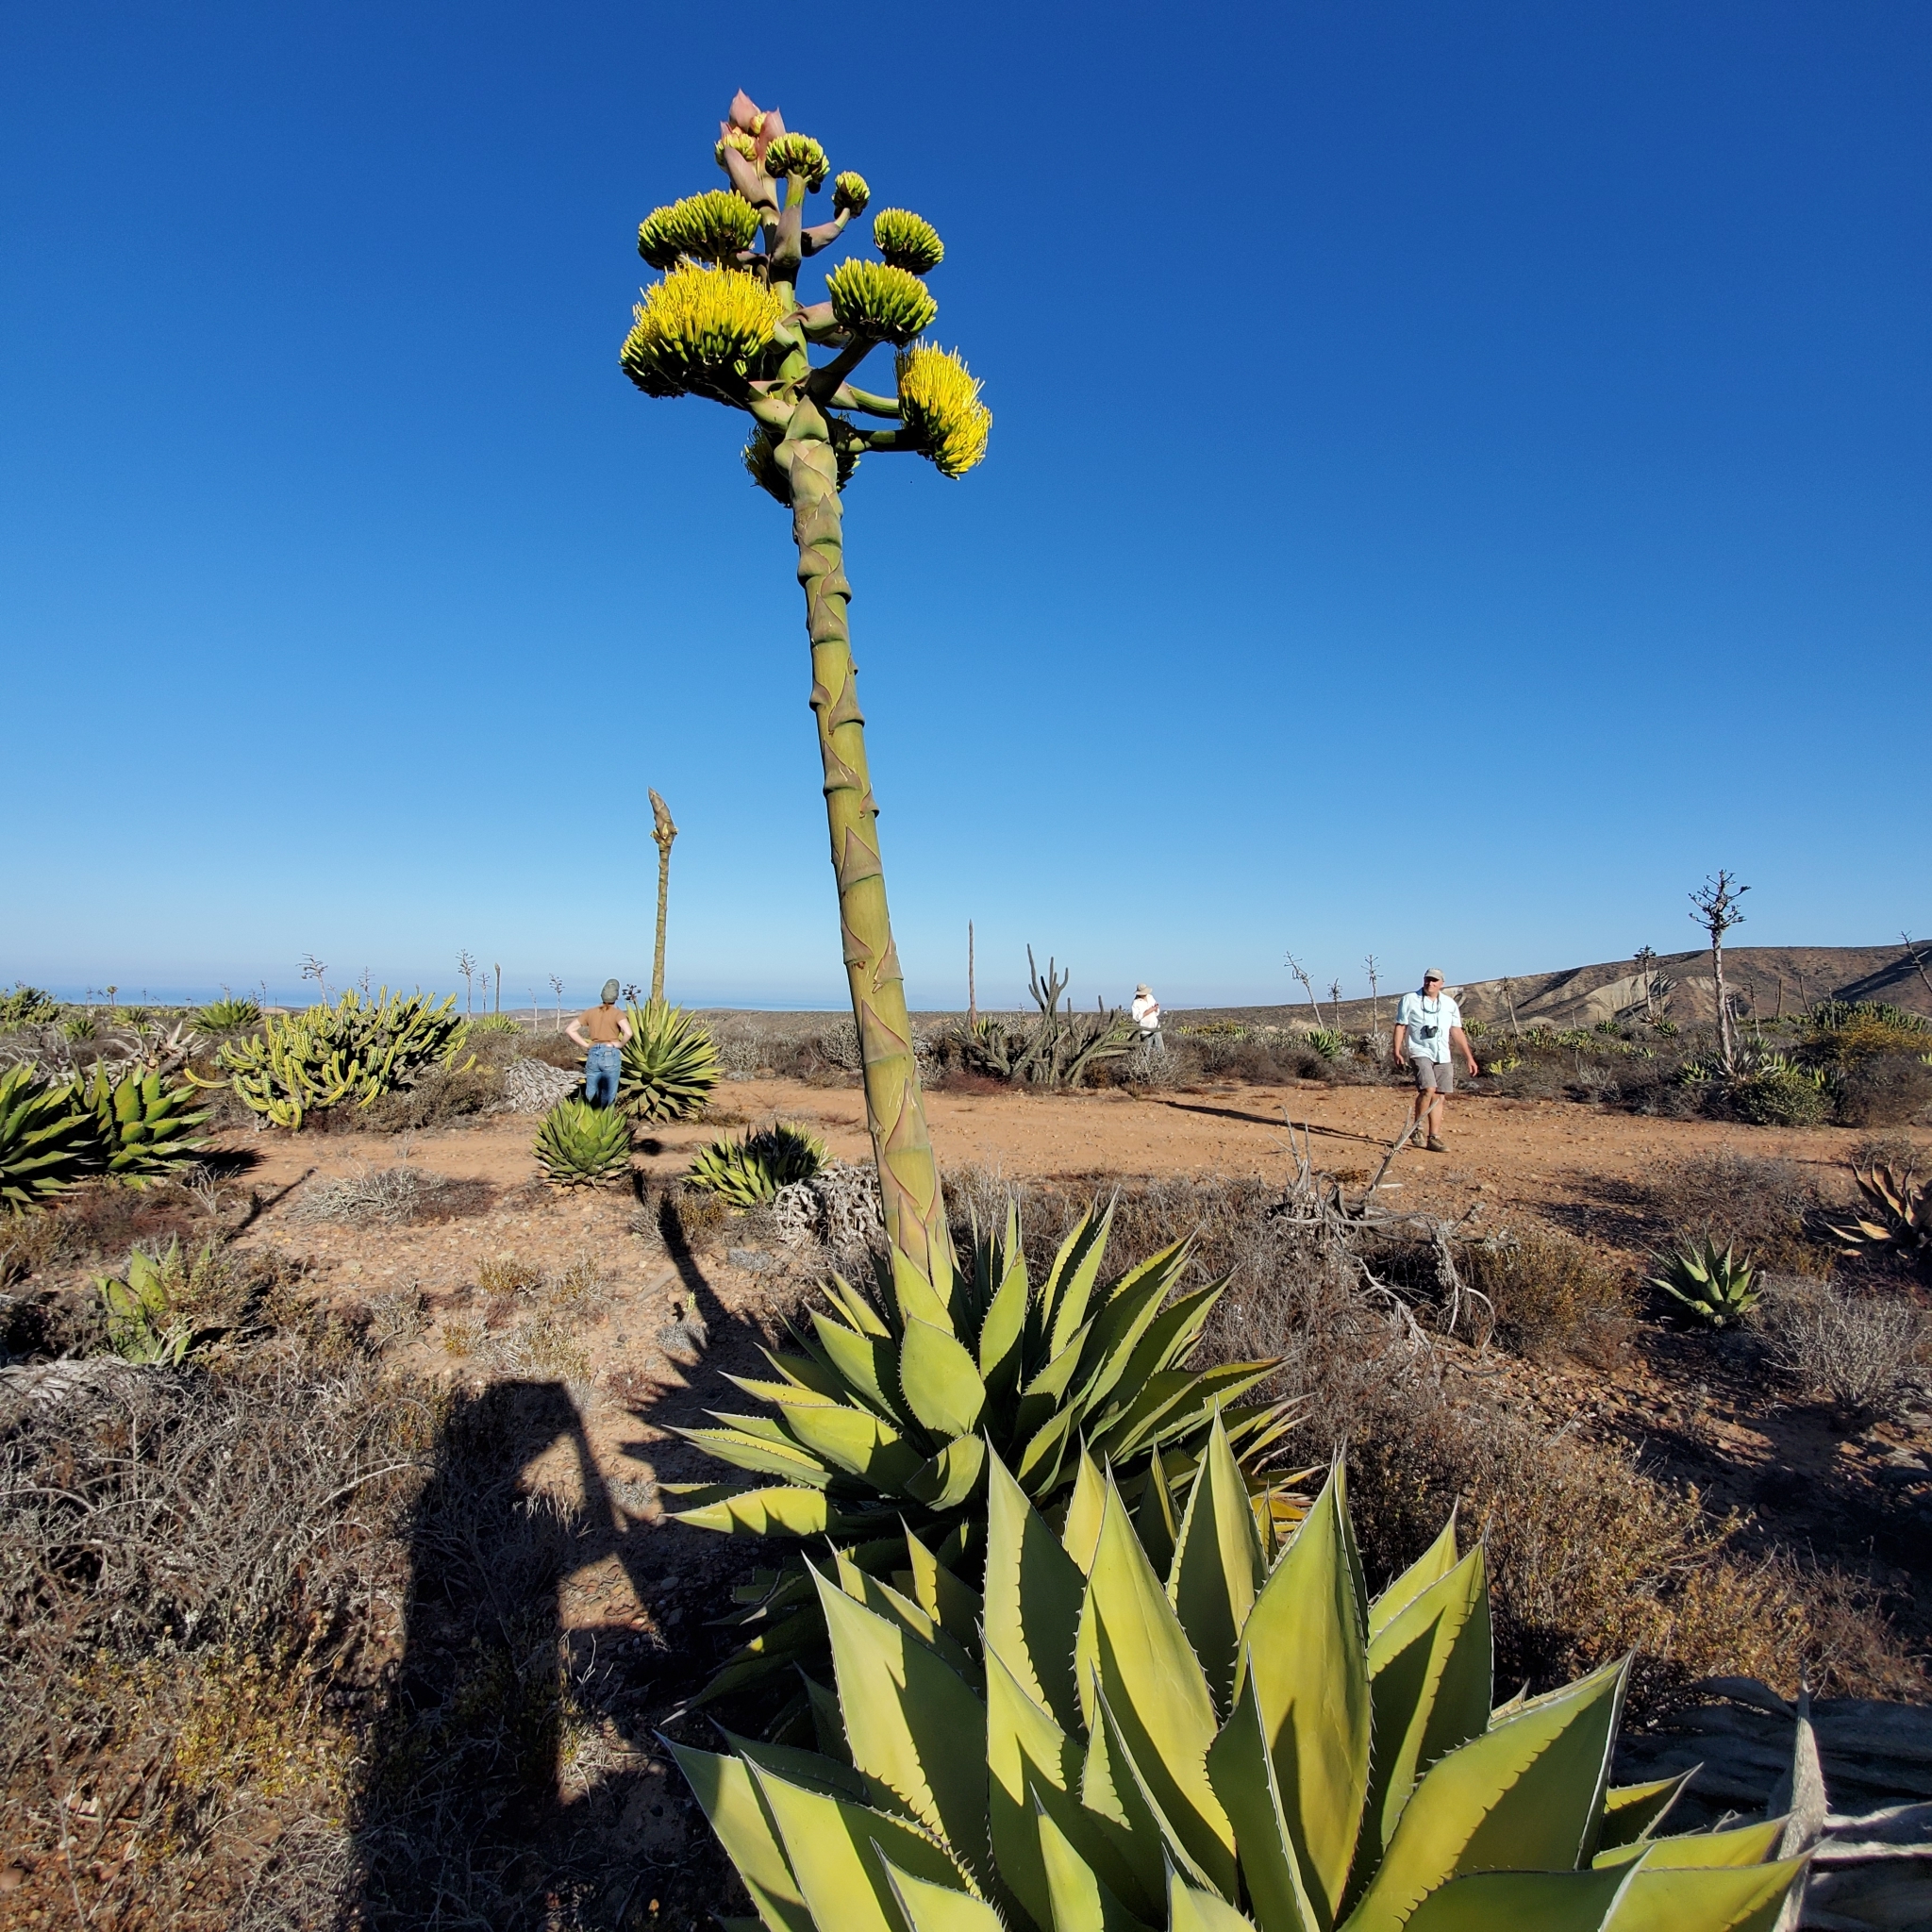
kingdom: Plantae
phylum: Tracheophyta
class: Liliopsida
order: Asparagales
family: Asparagaceae
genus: Agave
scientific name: Agave shawii
